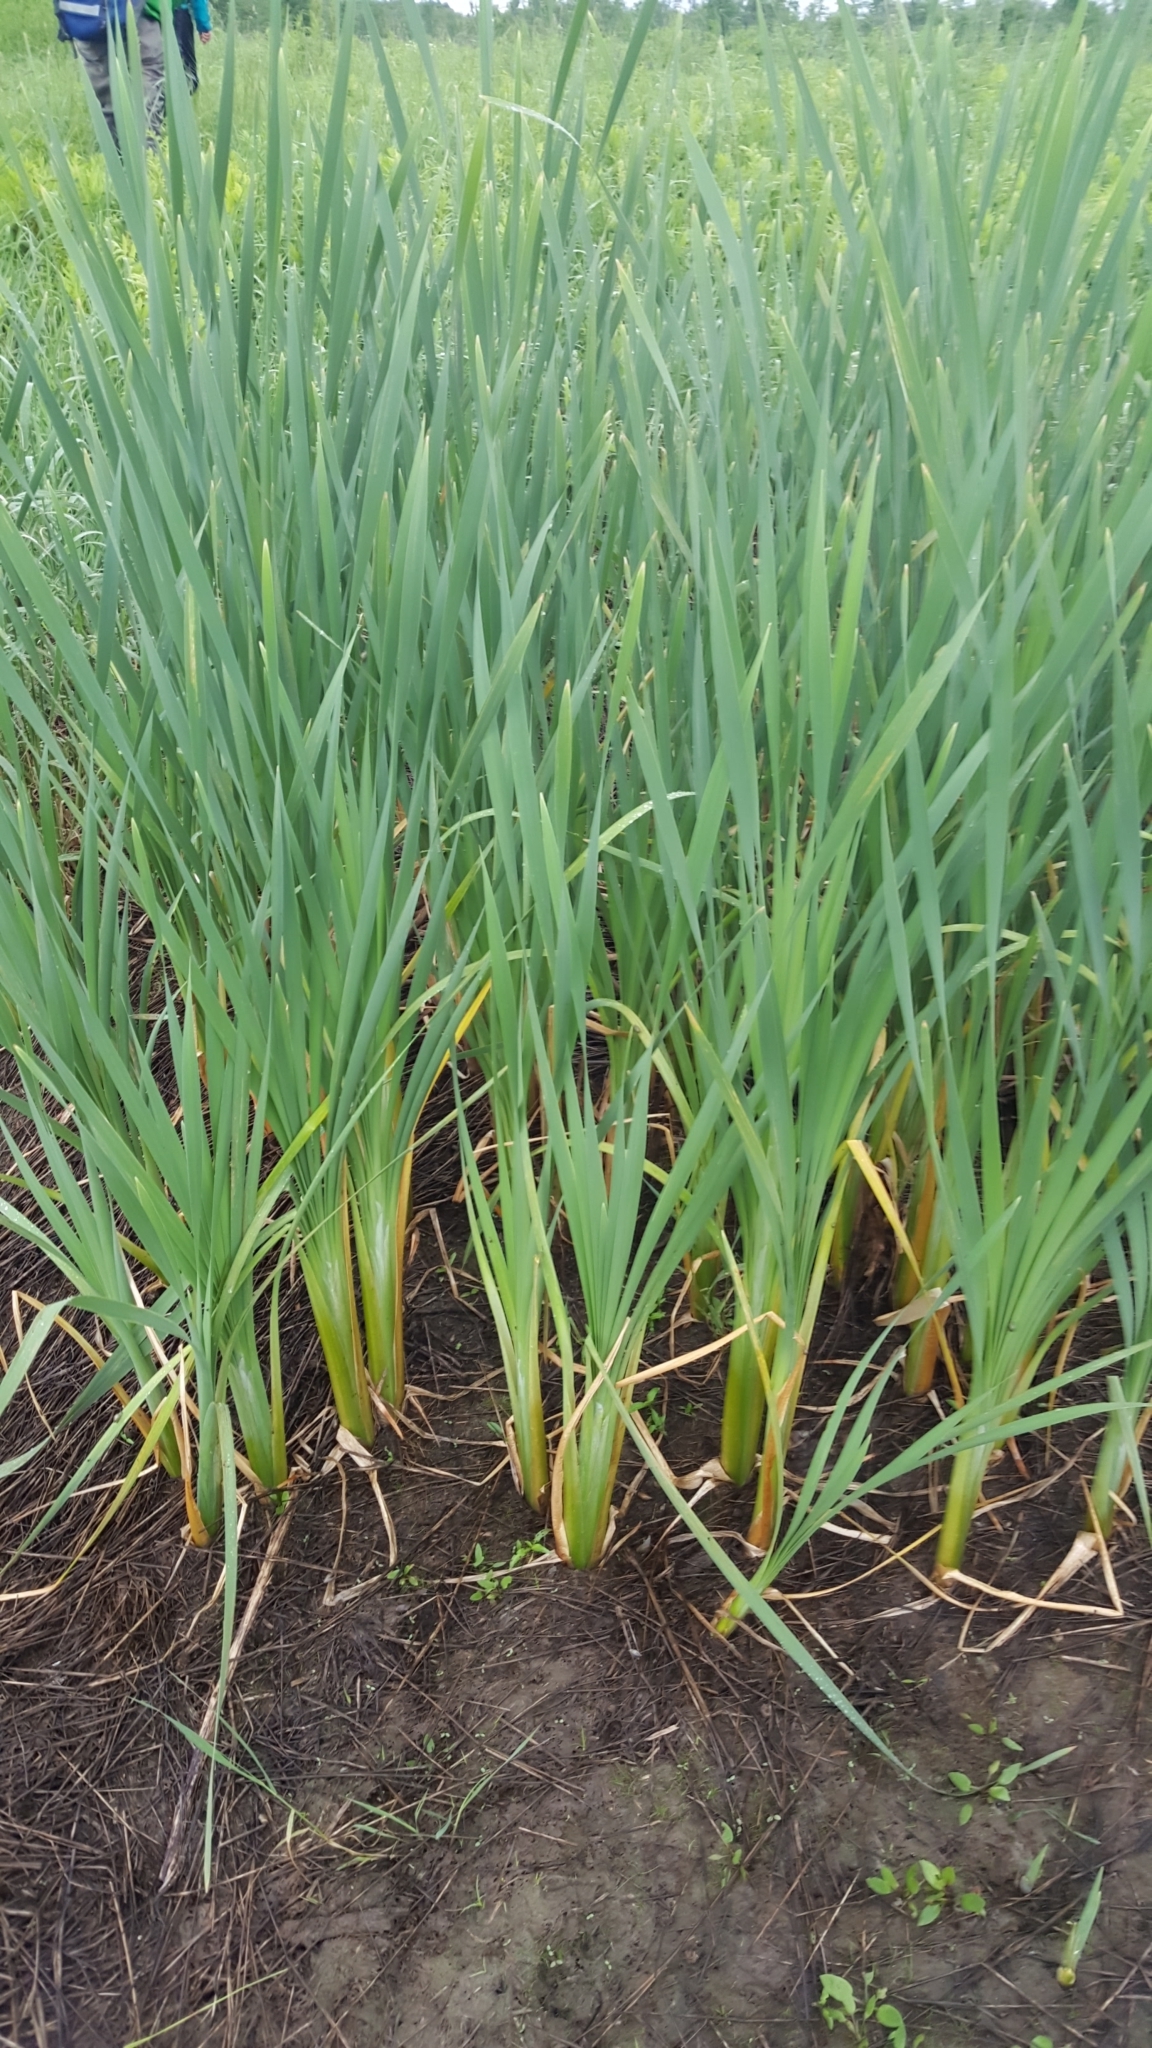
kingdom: Plantae
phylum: Tracheophyta
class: Liliopsida
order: Poales
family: Typhaceae
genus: Typha
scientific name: Typha latifolia
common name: Broadleaf cattail
